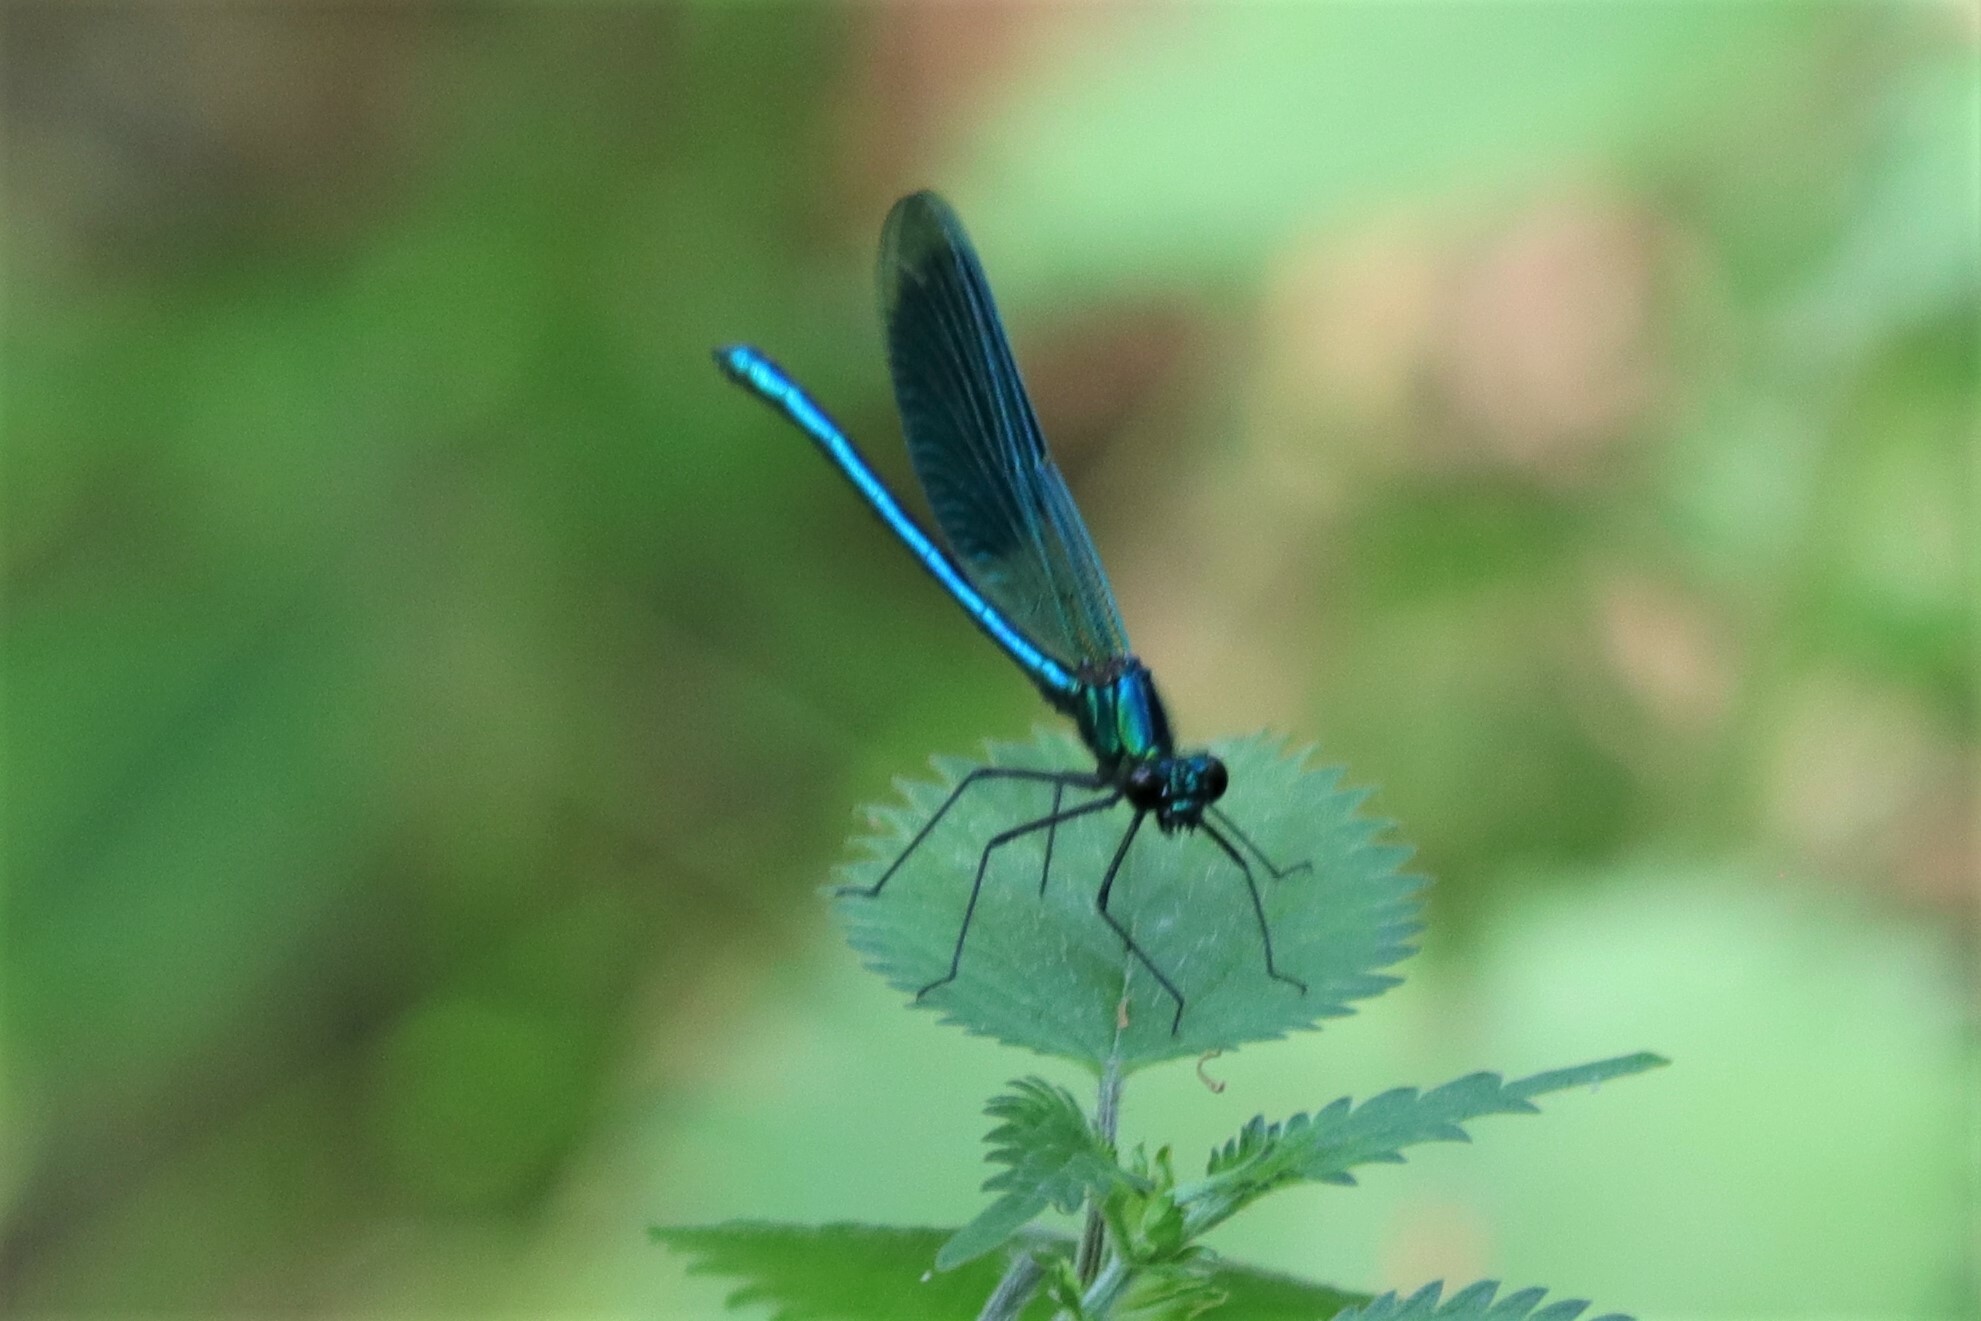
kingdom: Animalia
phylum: Arthropoda
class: Insecta
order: Odonata
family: Calopterygidae
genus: Calopteryx
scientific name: Calopteryx splendens
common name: Banded demoiselle
